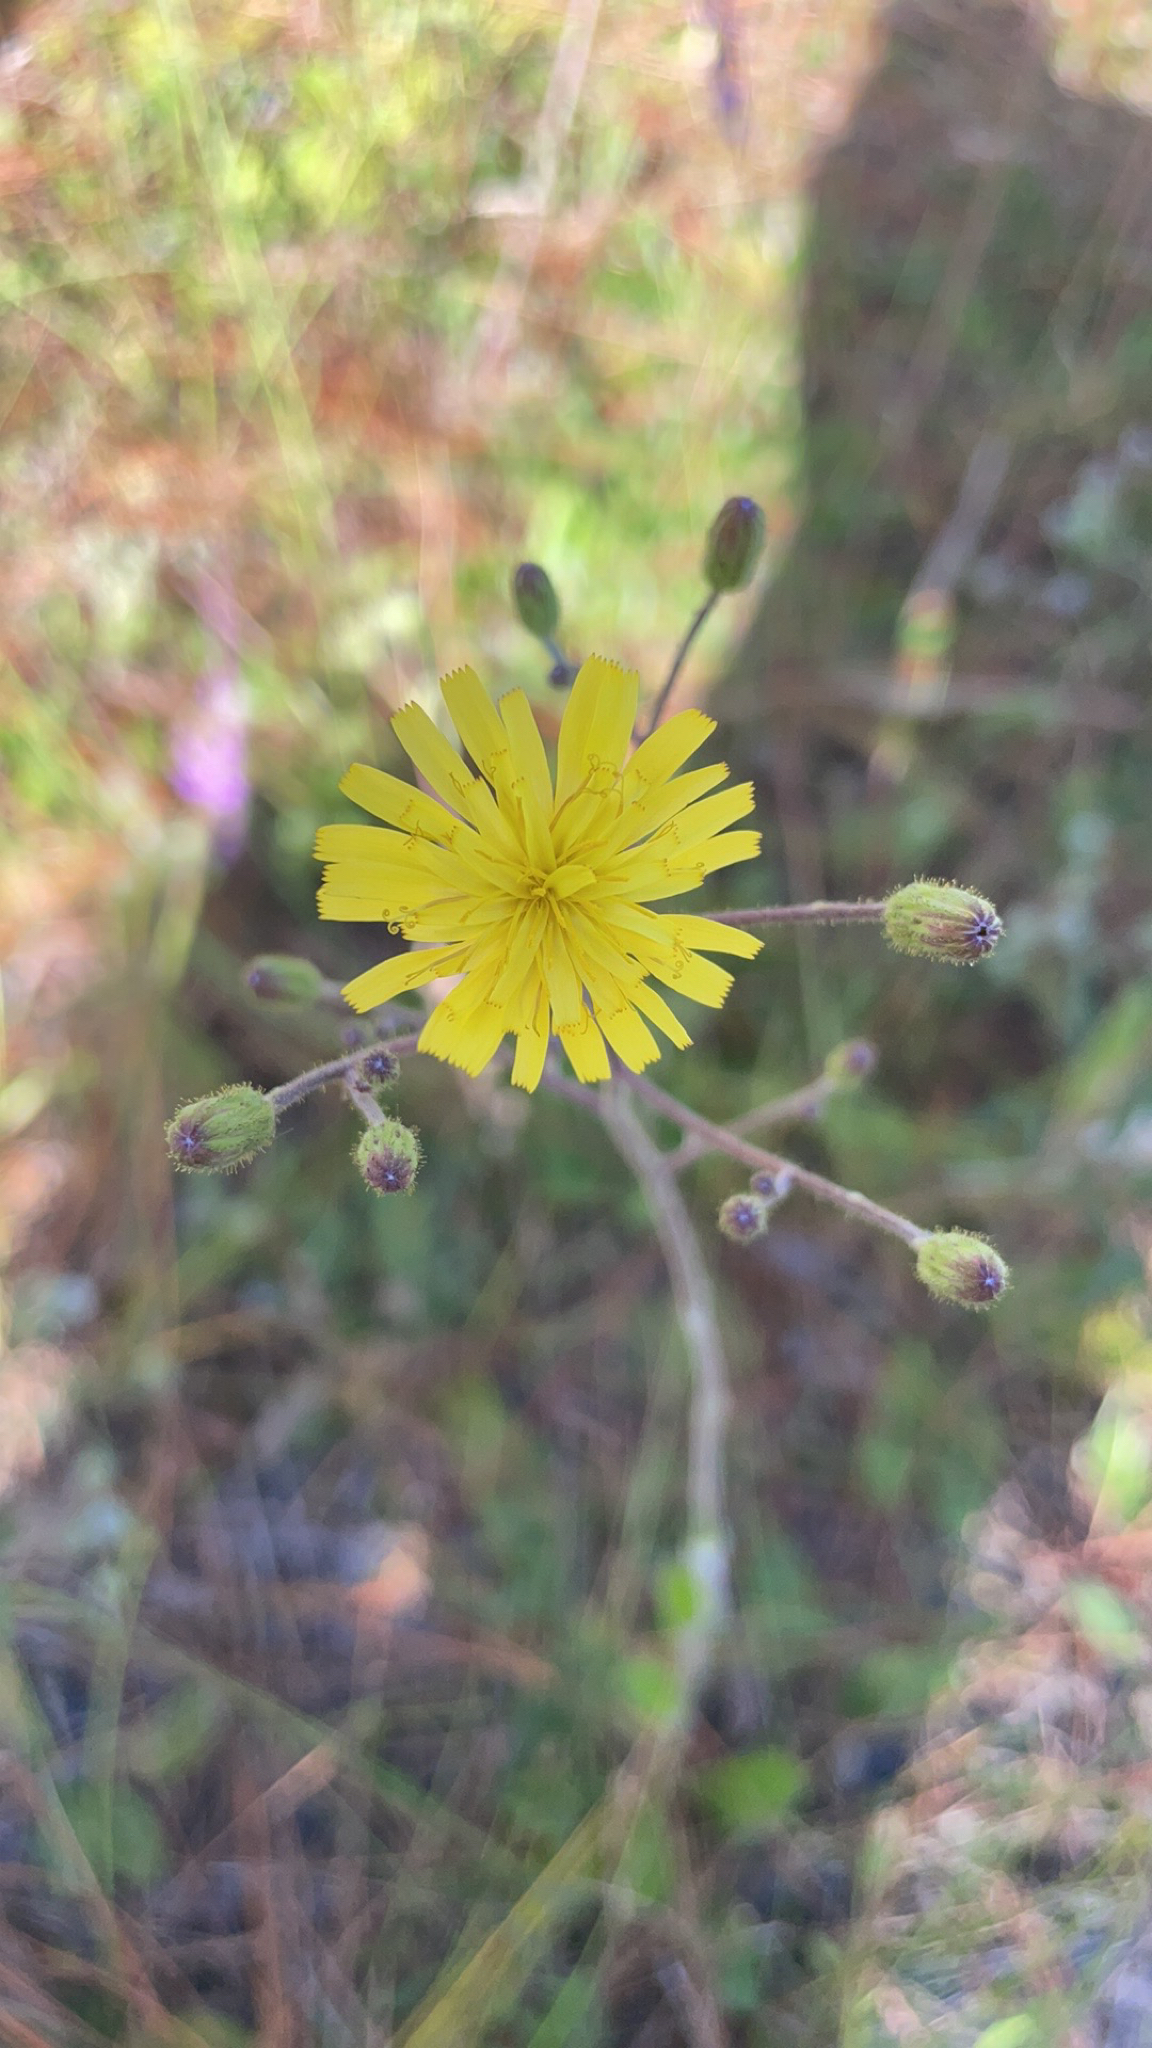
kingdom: Plantae
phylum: Tracheophyta
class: Magnoliopsida
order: Asterales
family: Asteraceae
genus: Hieracium
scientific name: Hieracium megacephalum
